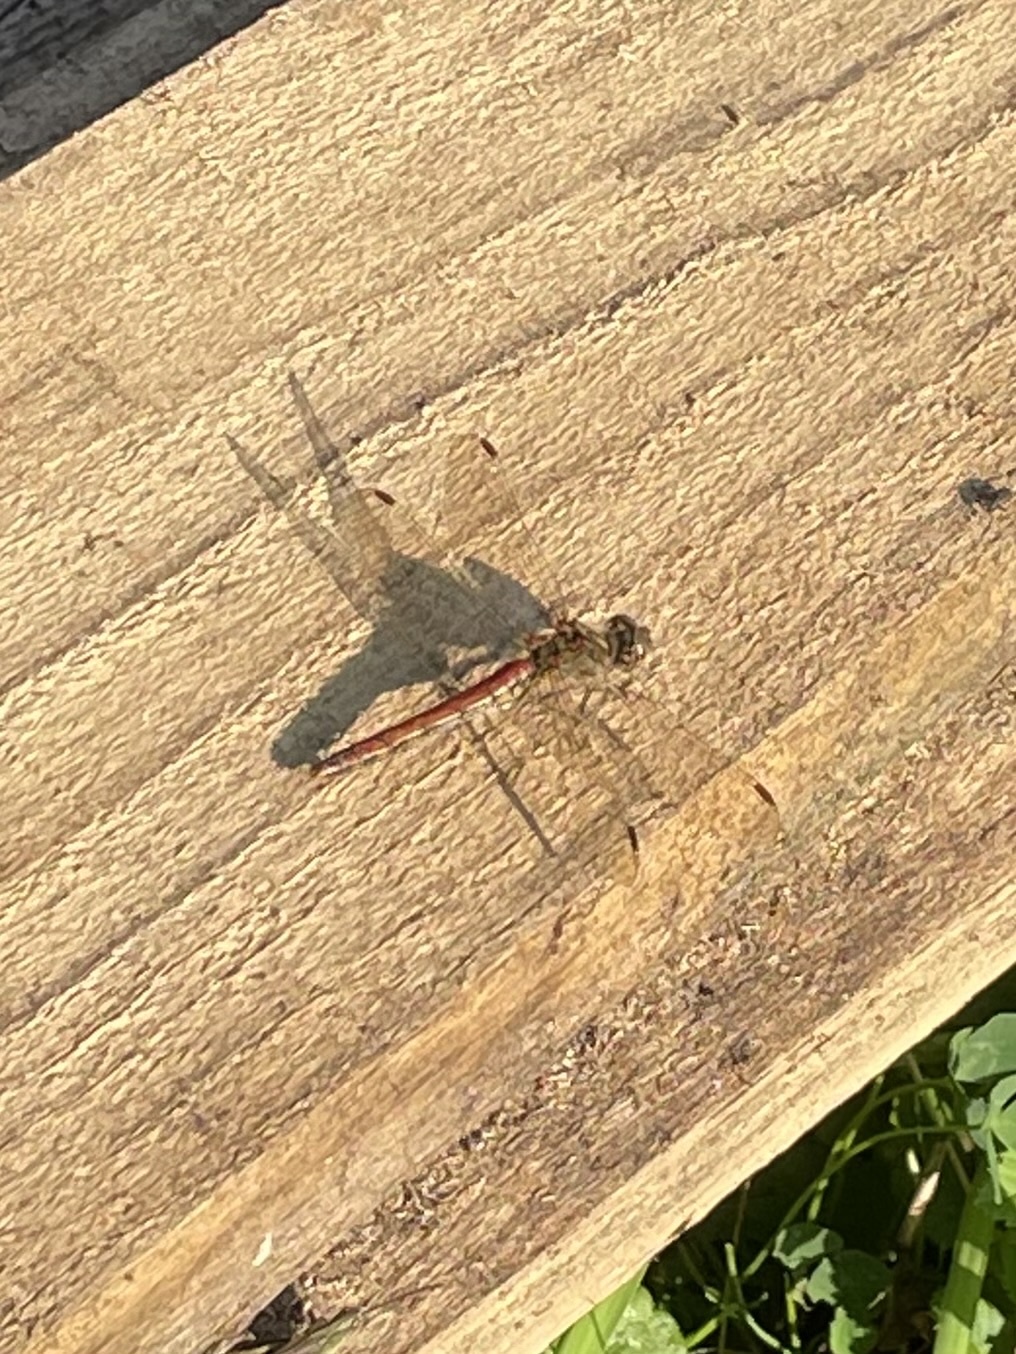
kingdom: Animalia
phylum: Arthropoda
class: Insecta
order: Odonata
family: Libellulidae
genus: Sympetrum
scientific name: Sympetrum vulgatum
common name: Vagrant darter
